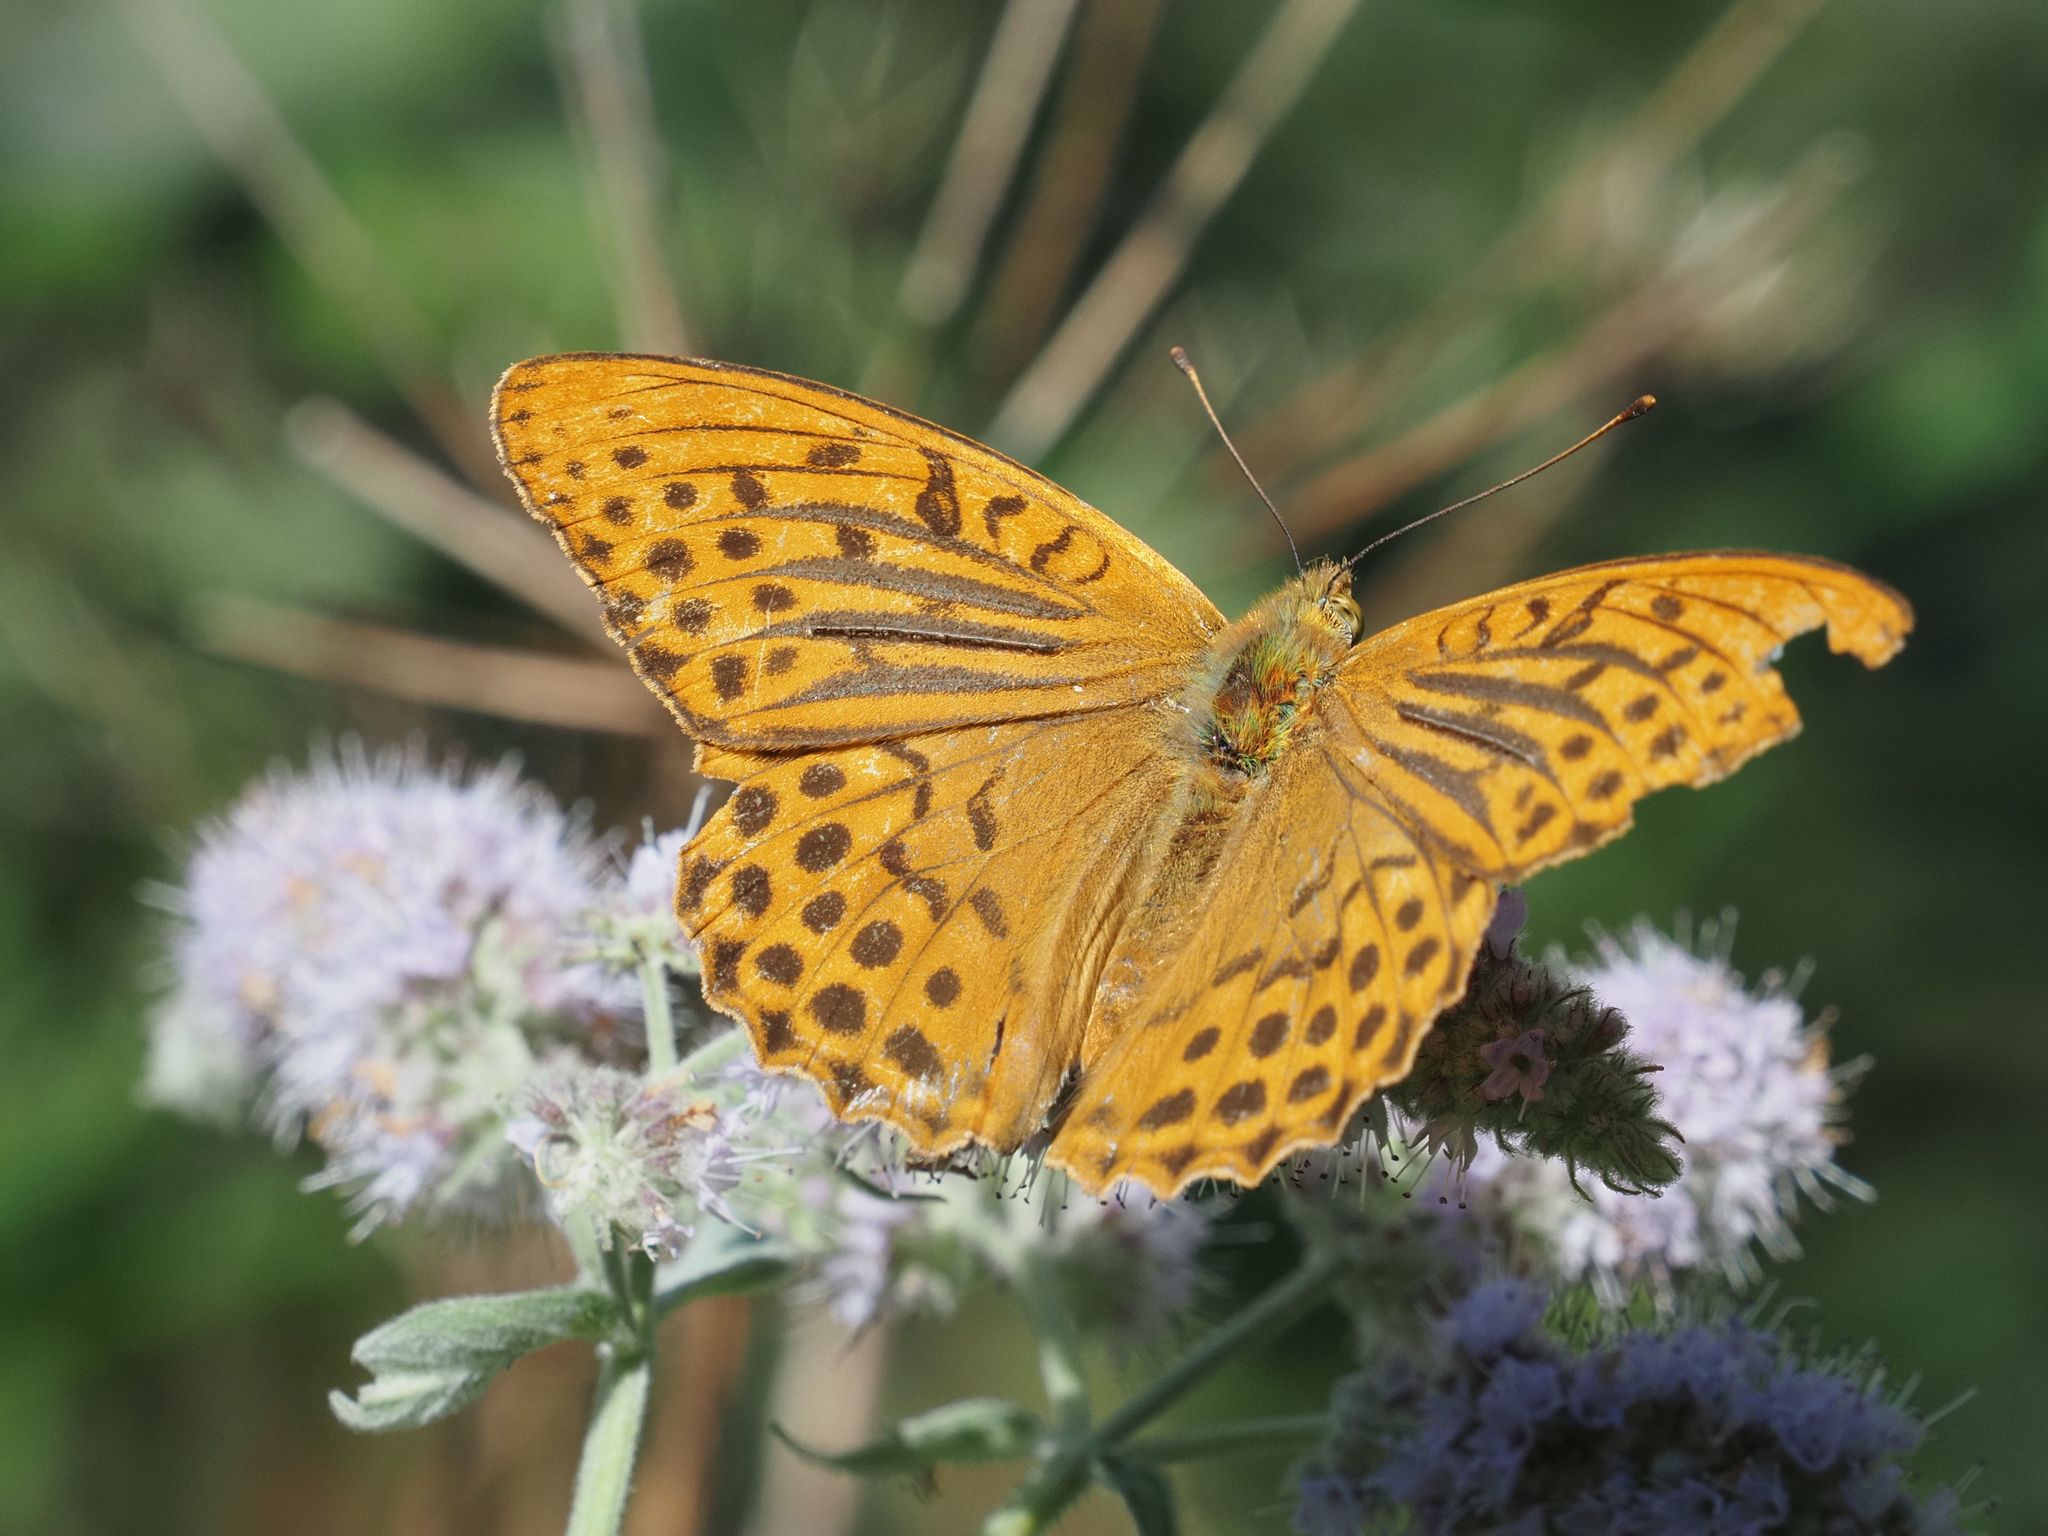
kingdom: Animalia
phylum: Arthropoda
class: Insecta
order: Lepidoptera
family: Nymphalidae
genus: Argynnis
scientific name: Argynnis paphia
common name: Silver-washed fritillary
